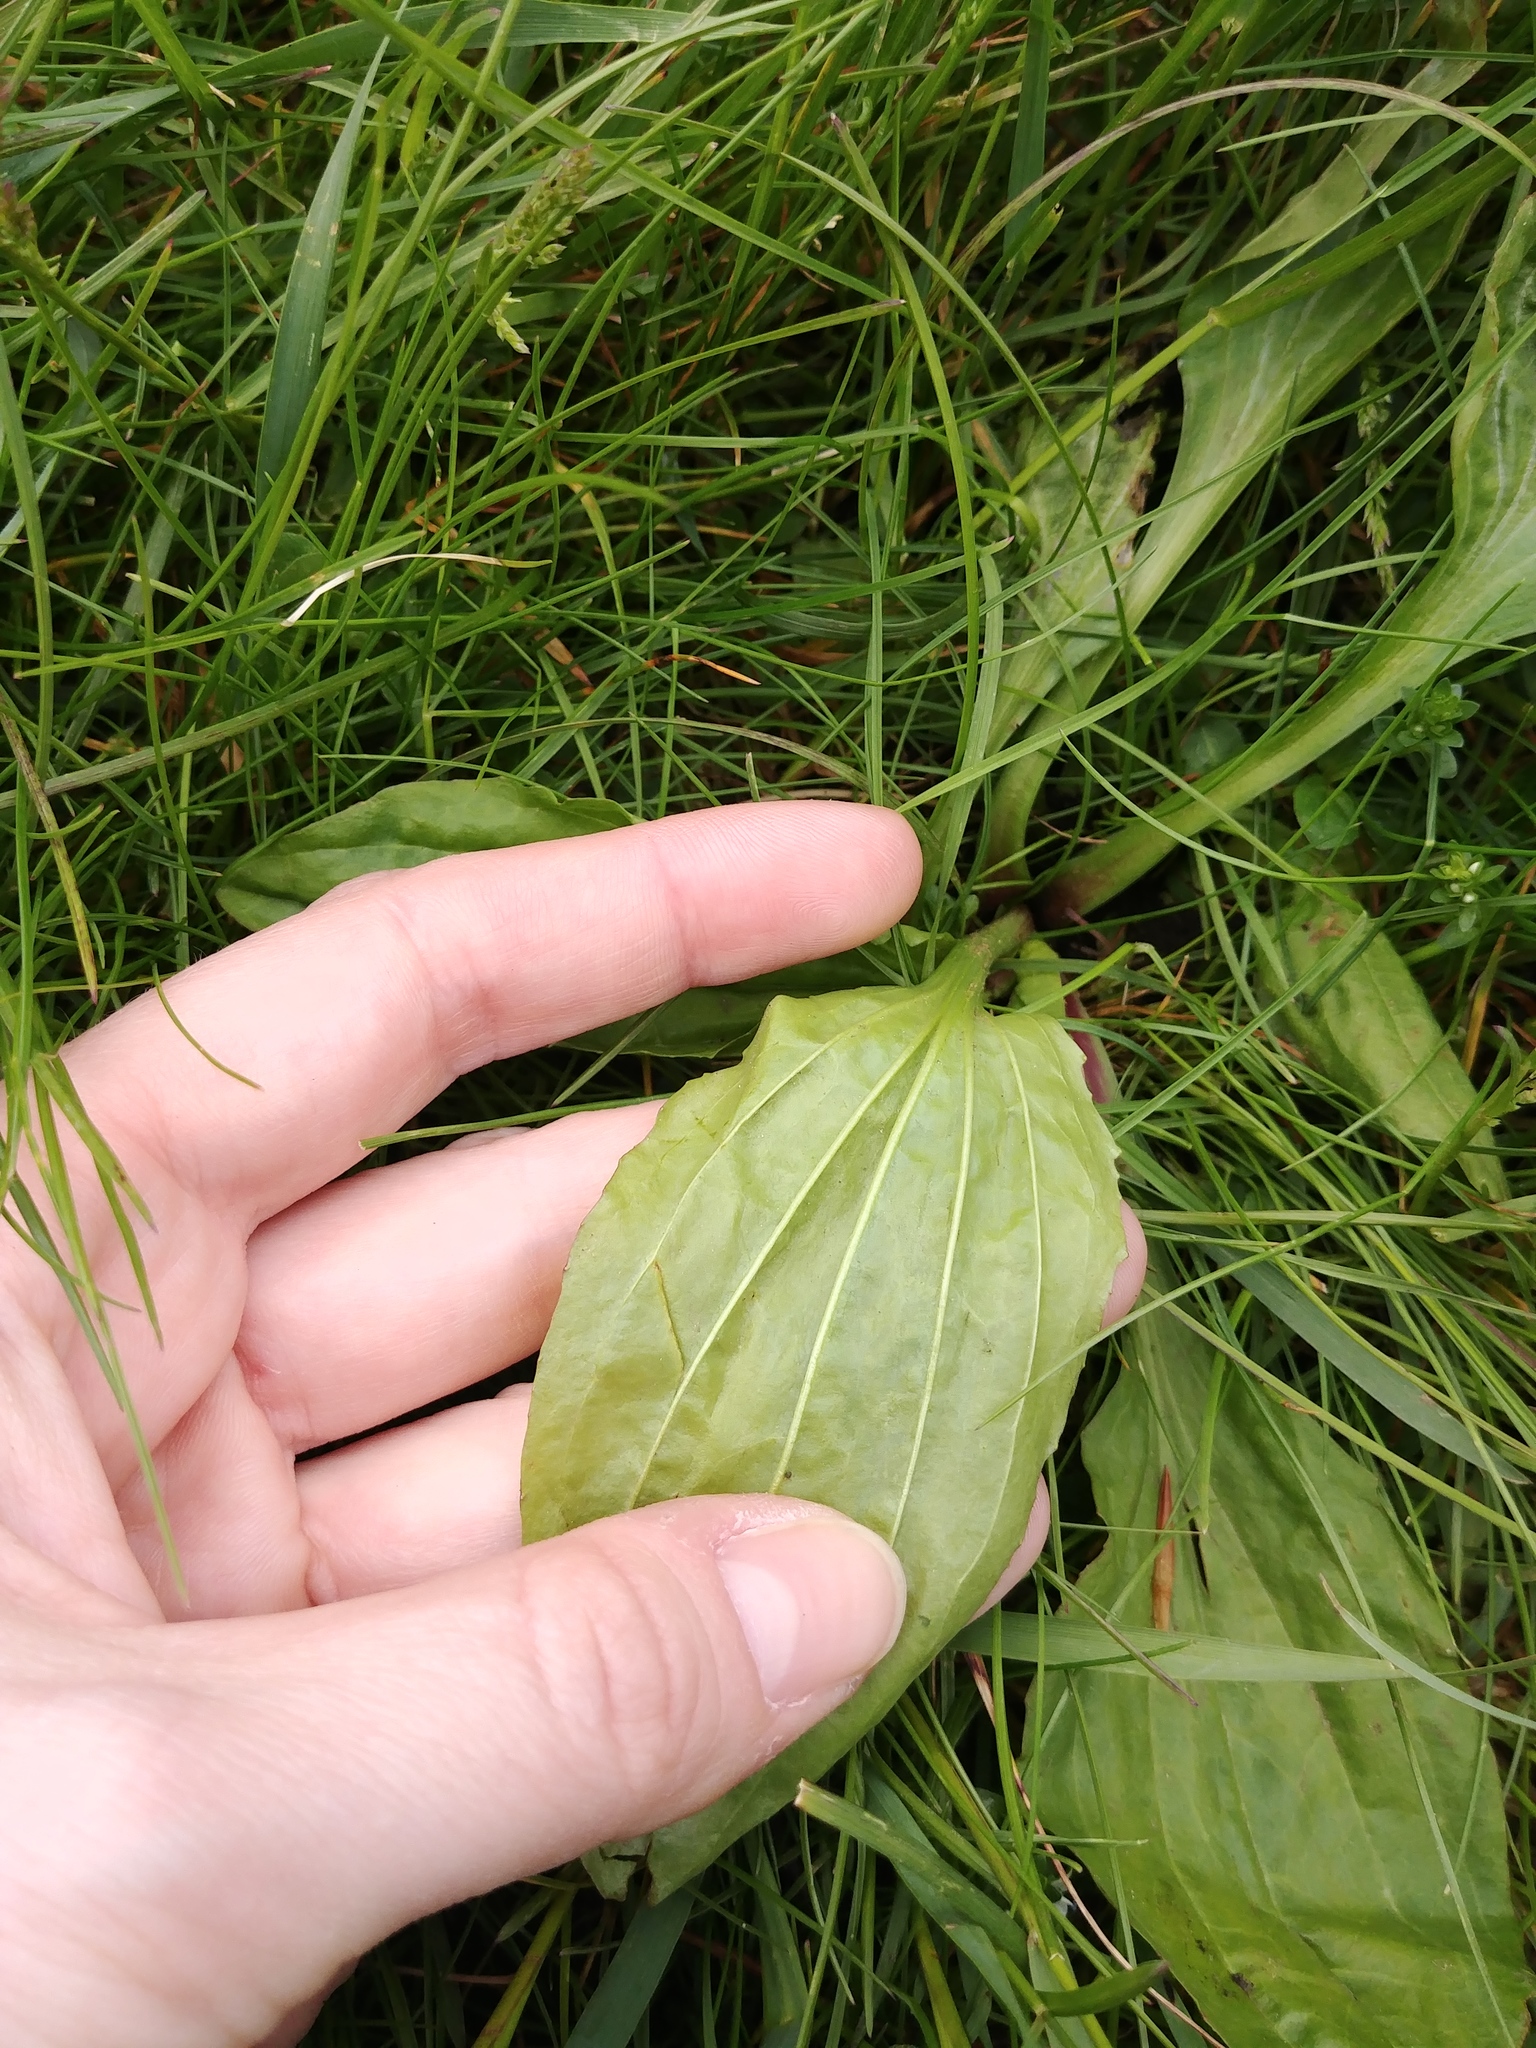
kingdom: Plantae
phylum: Tracheophyta
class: Magnoliopsida
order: Lamiales
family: Plantaginaceae
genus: Plantago
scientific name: Plantago rugelii
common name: American plantain
